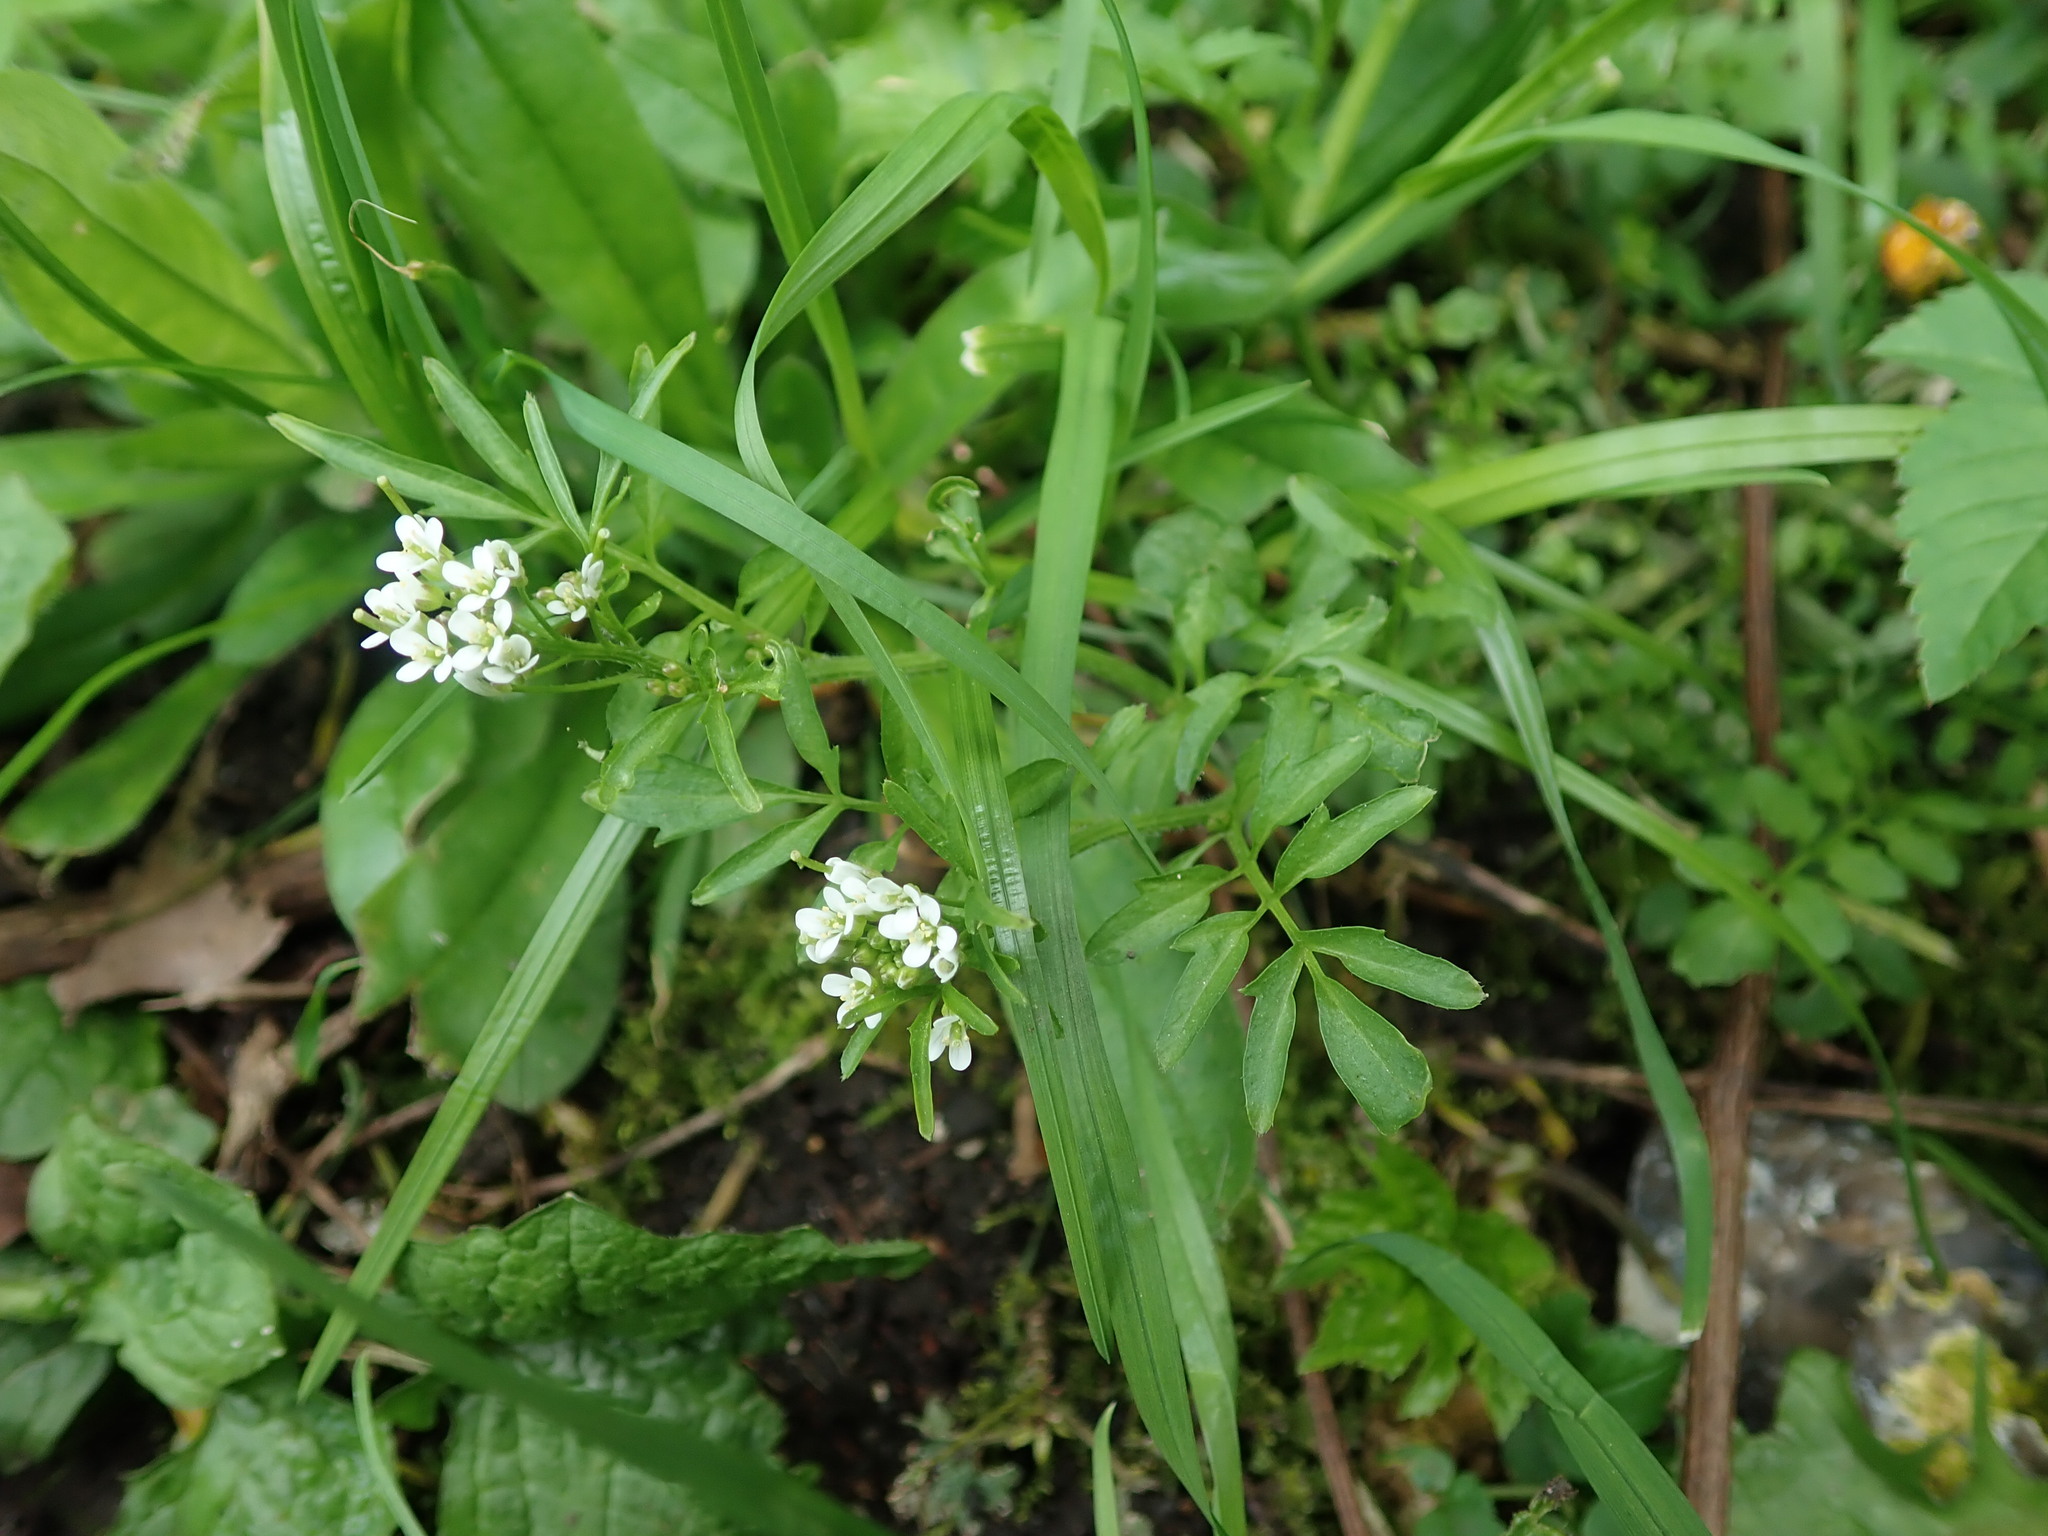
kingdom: Plantae
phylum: Tracheophyta
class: Magnoliopsida
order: Brassicales
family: Brassicaceae
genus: Cardamine
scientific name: Cardamine flexuosa
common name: Woodland bittercress
